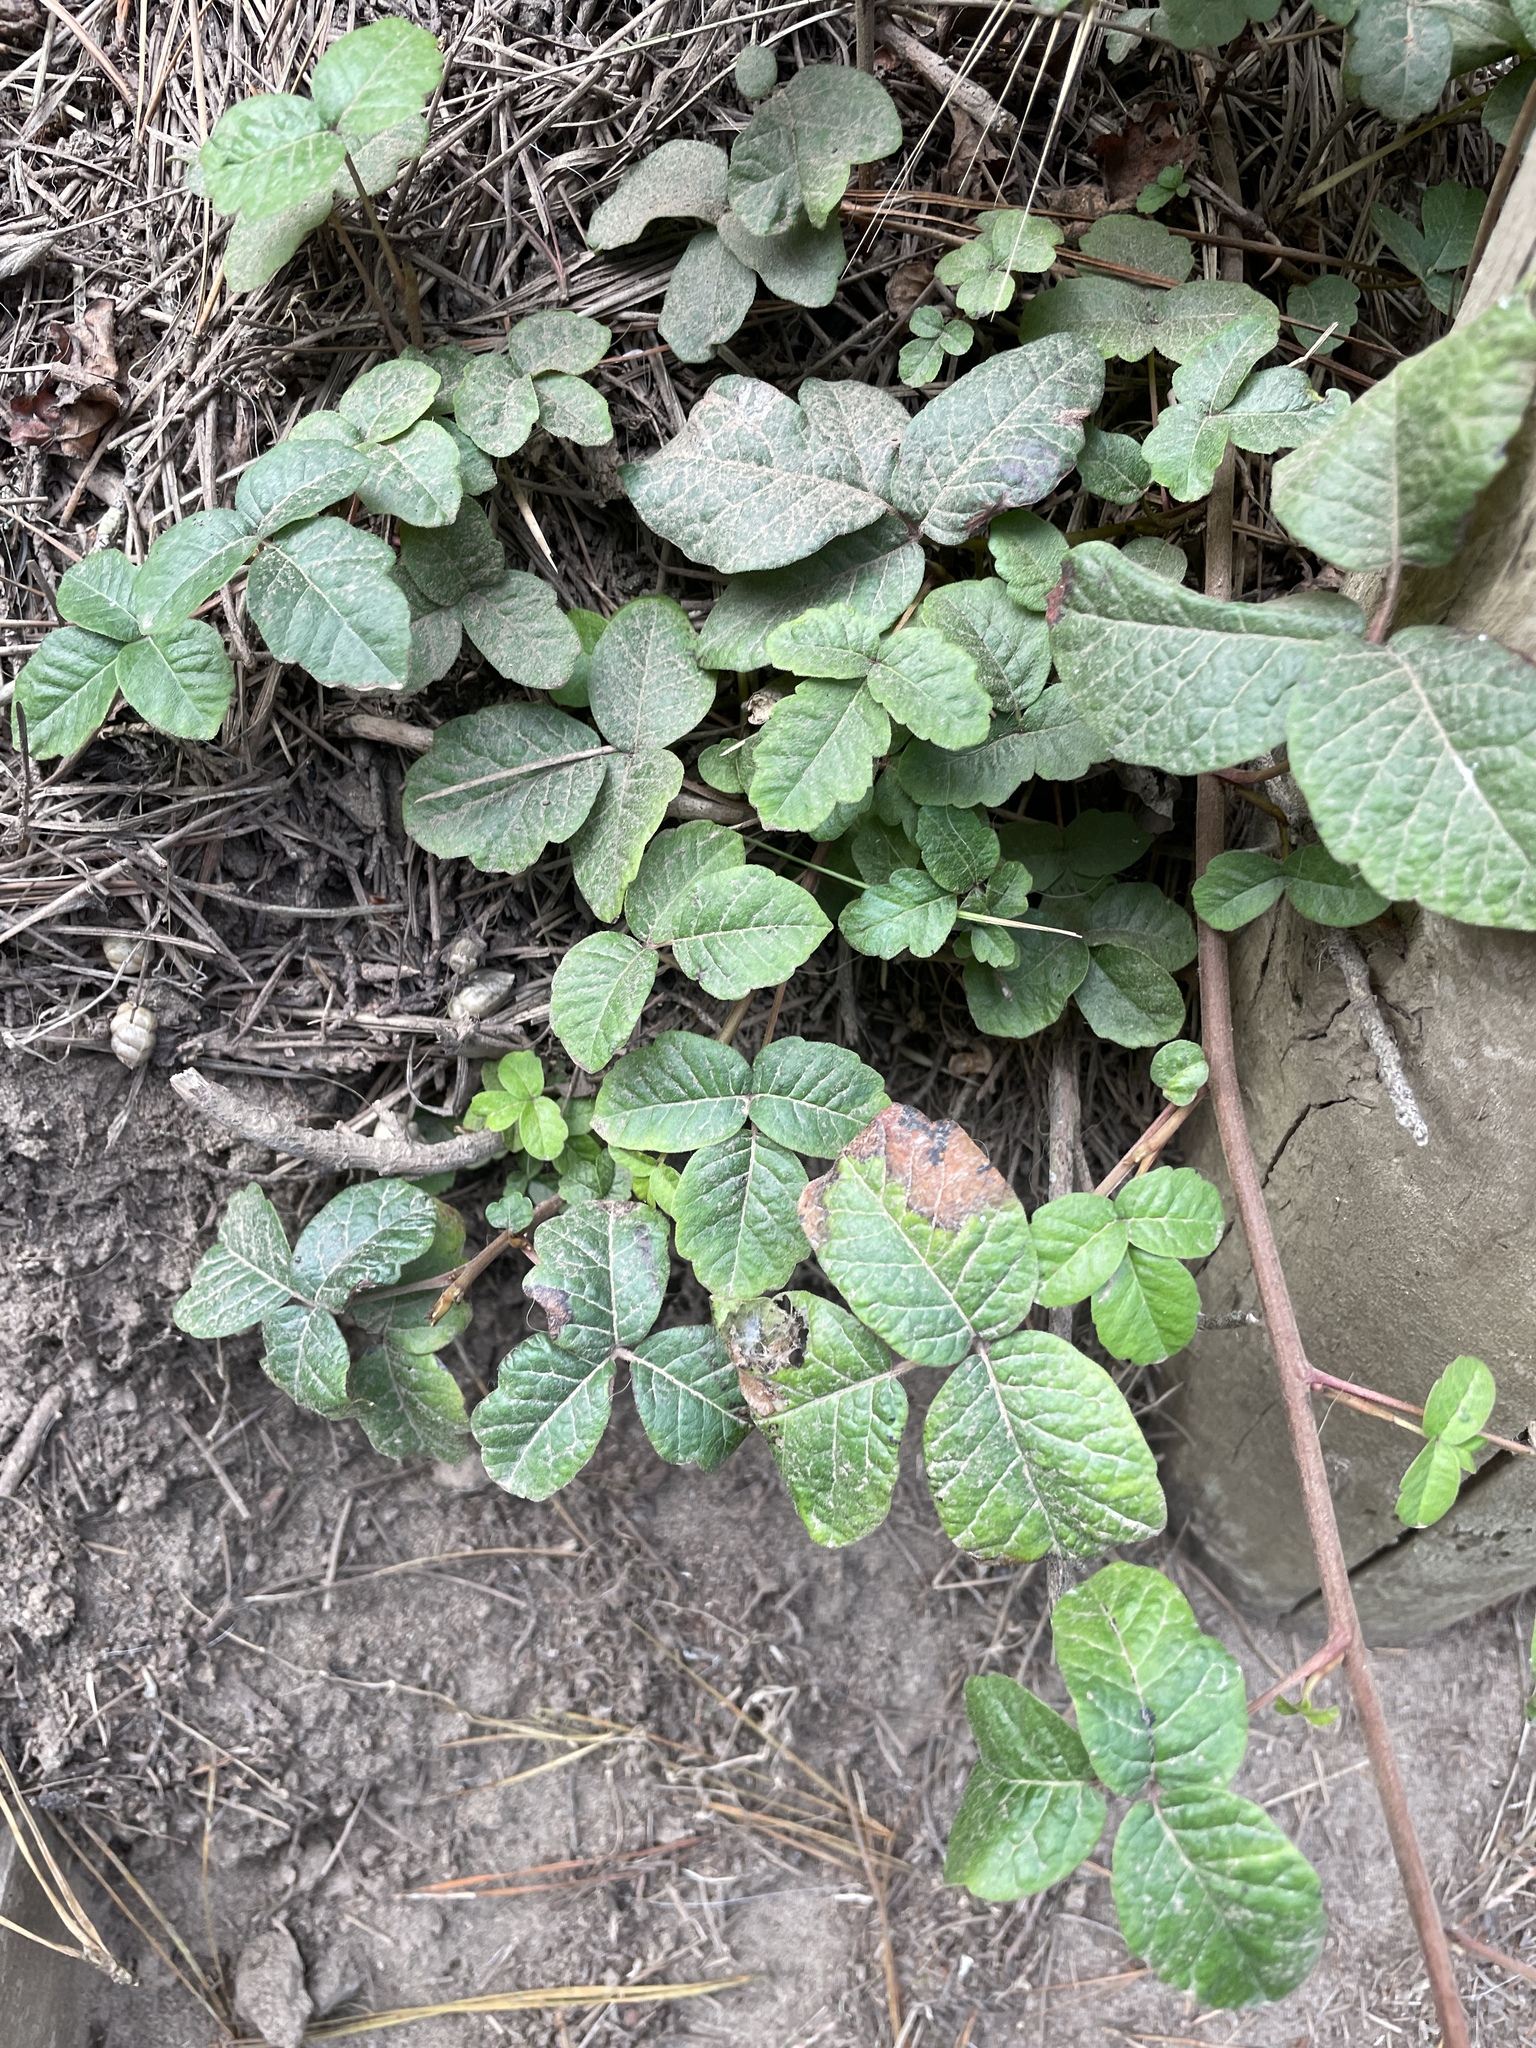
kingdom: Plantae
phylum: Tracheophyta
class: Magnoliopsida
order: Sapindales
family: Anacardiaceae
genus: Toxicodendron
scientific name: Toxicodendron diversilobum
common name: Pacific poison-oak
